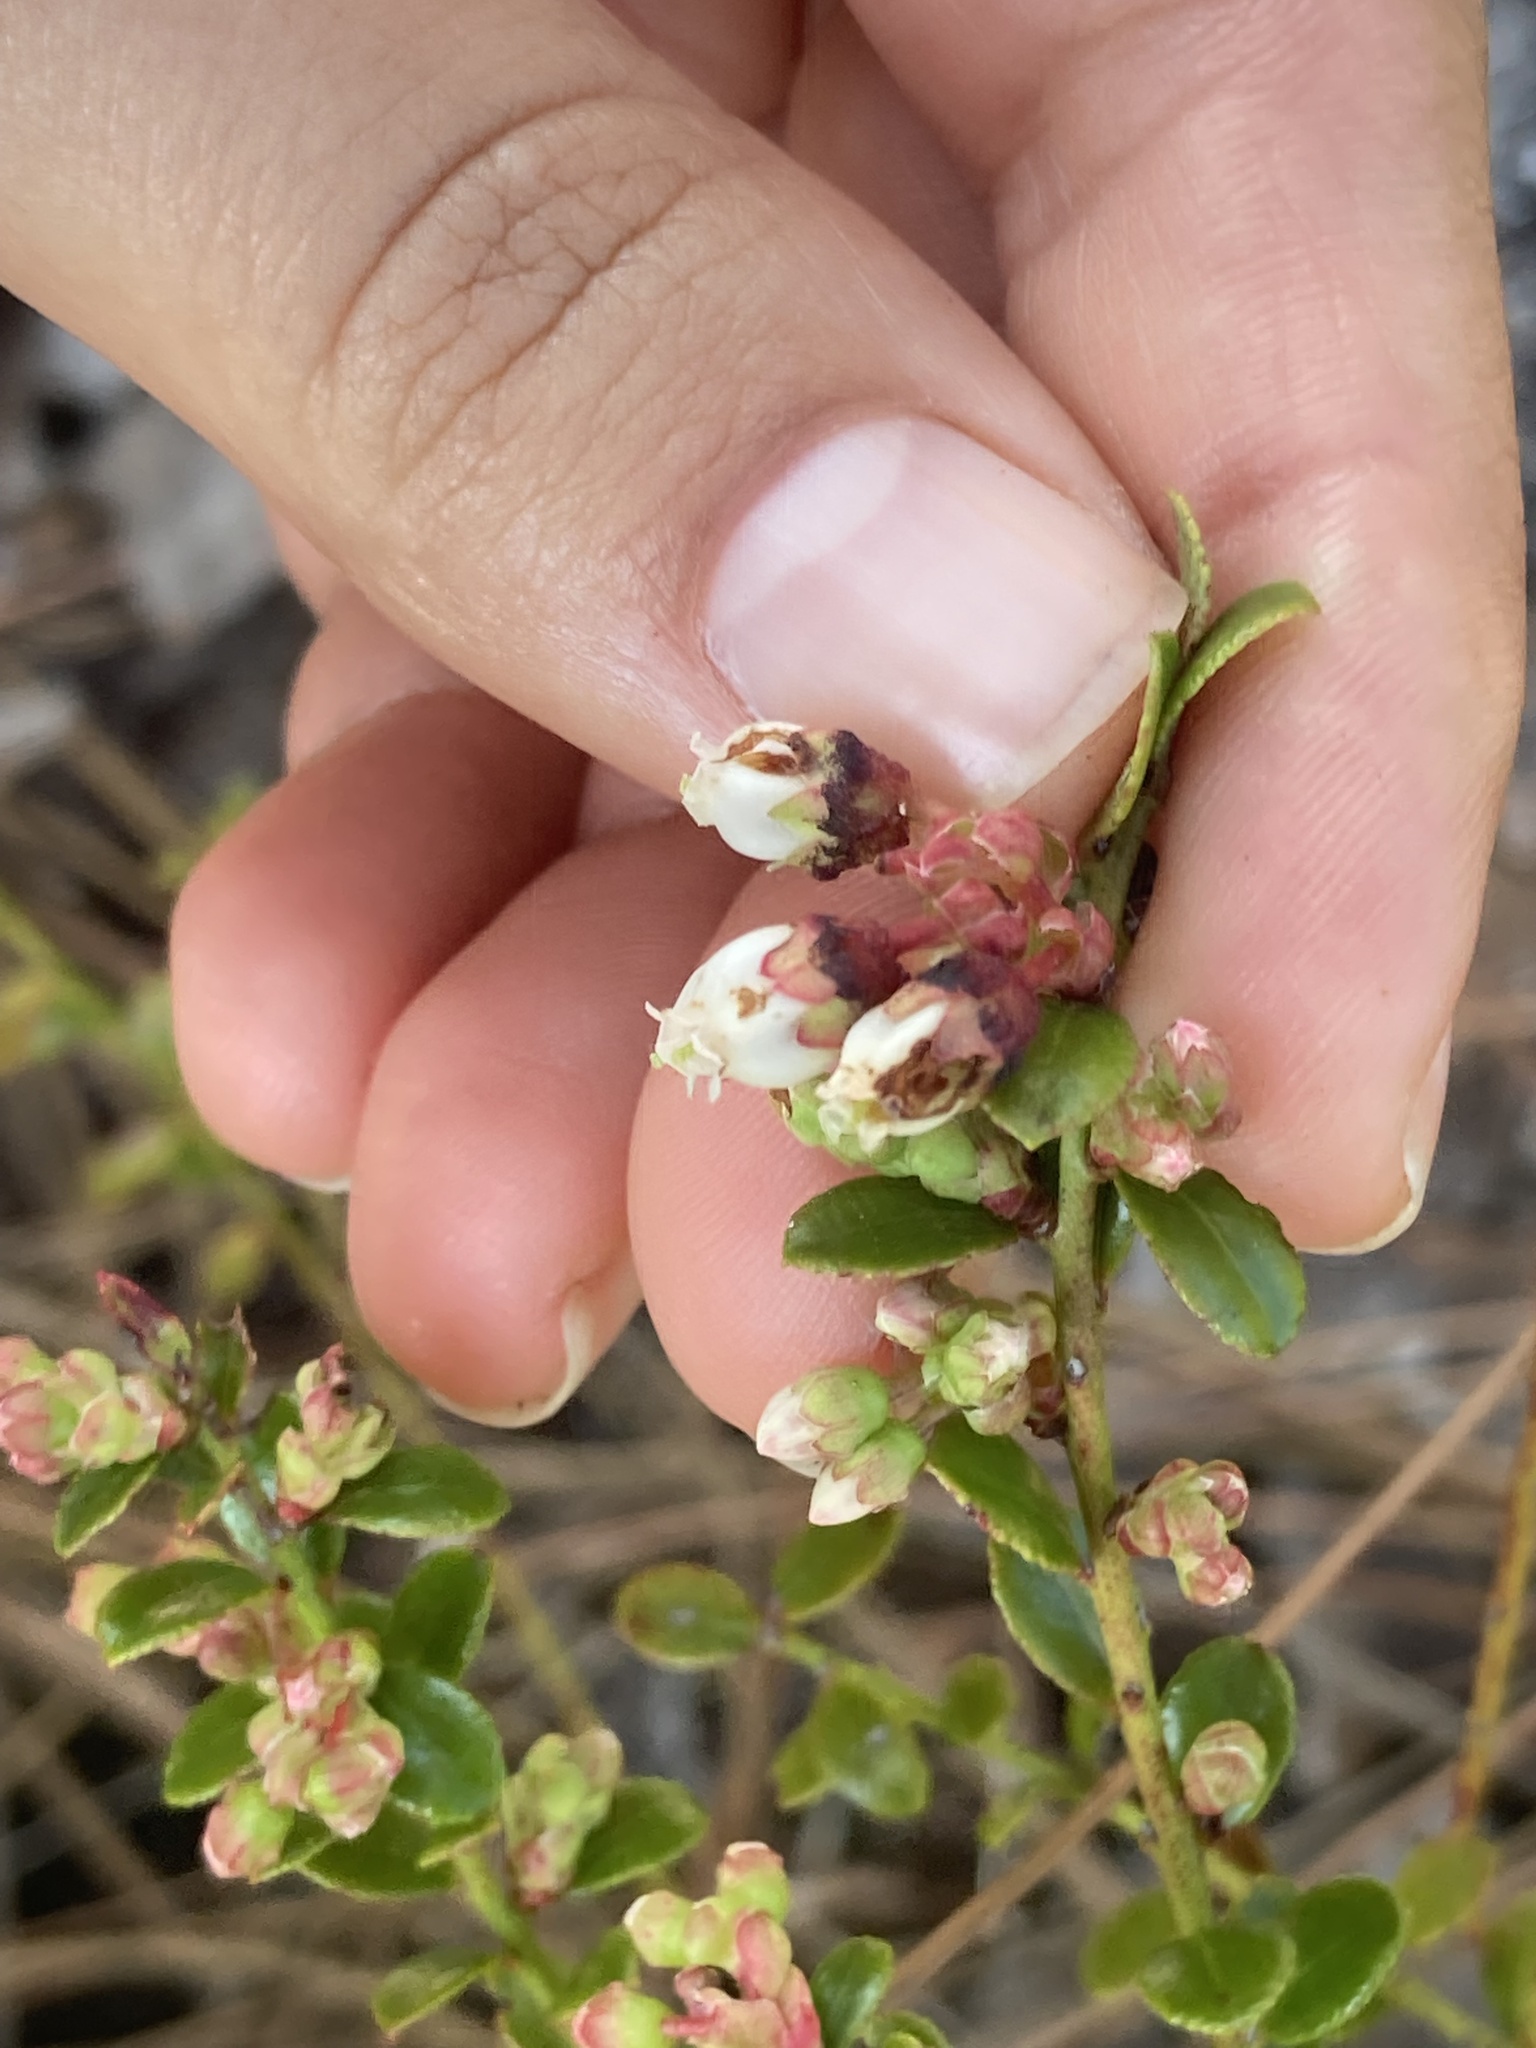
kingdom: Plantae
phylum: Tracheophyta
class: Magnoliopsida
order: Ericales
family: Ericaceae
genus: Vaccinium
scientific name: Vaccinium myrsinites
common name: Evergreen blueberry
